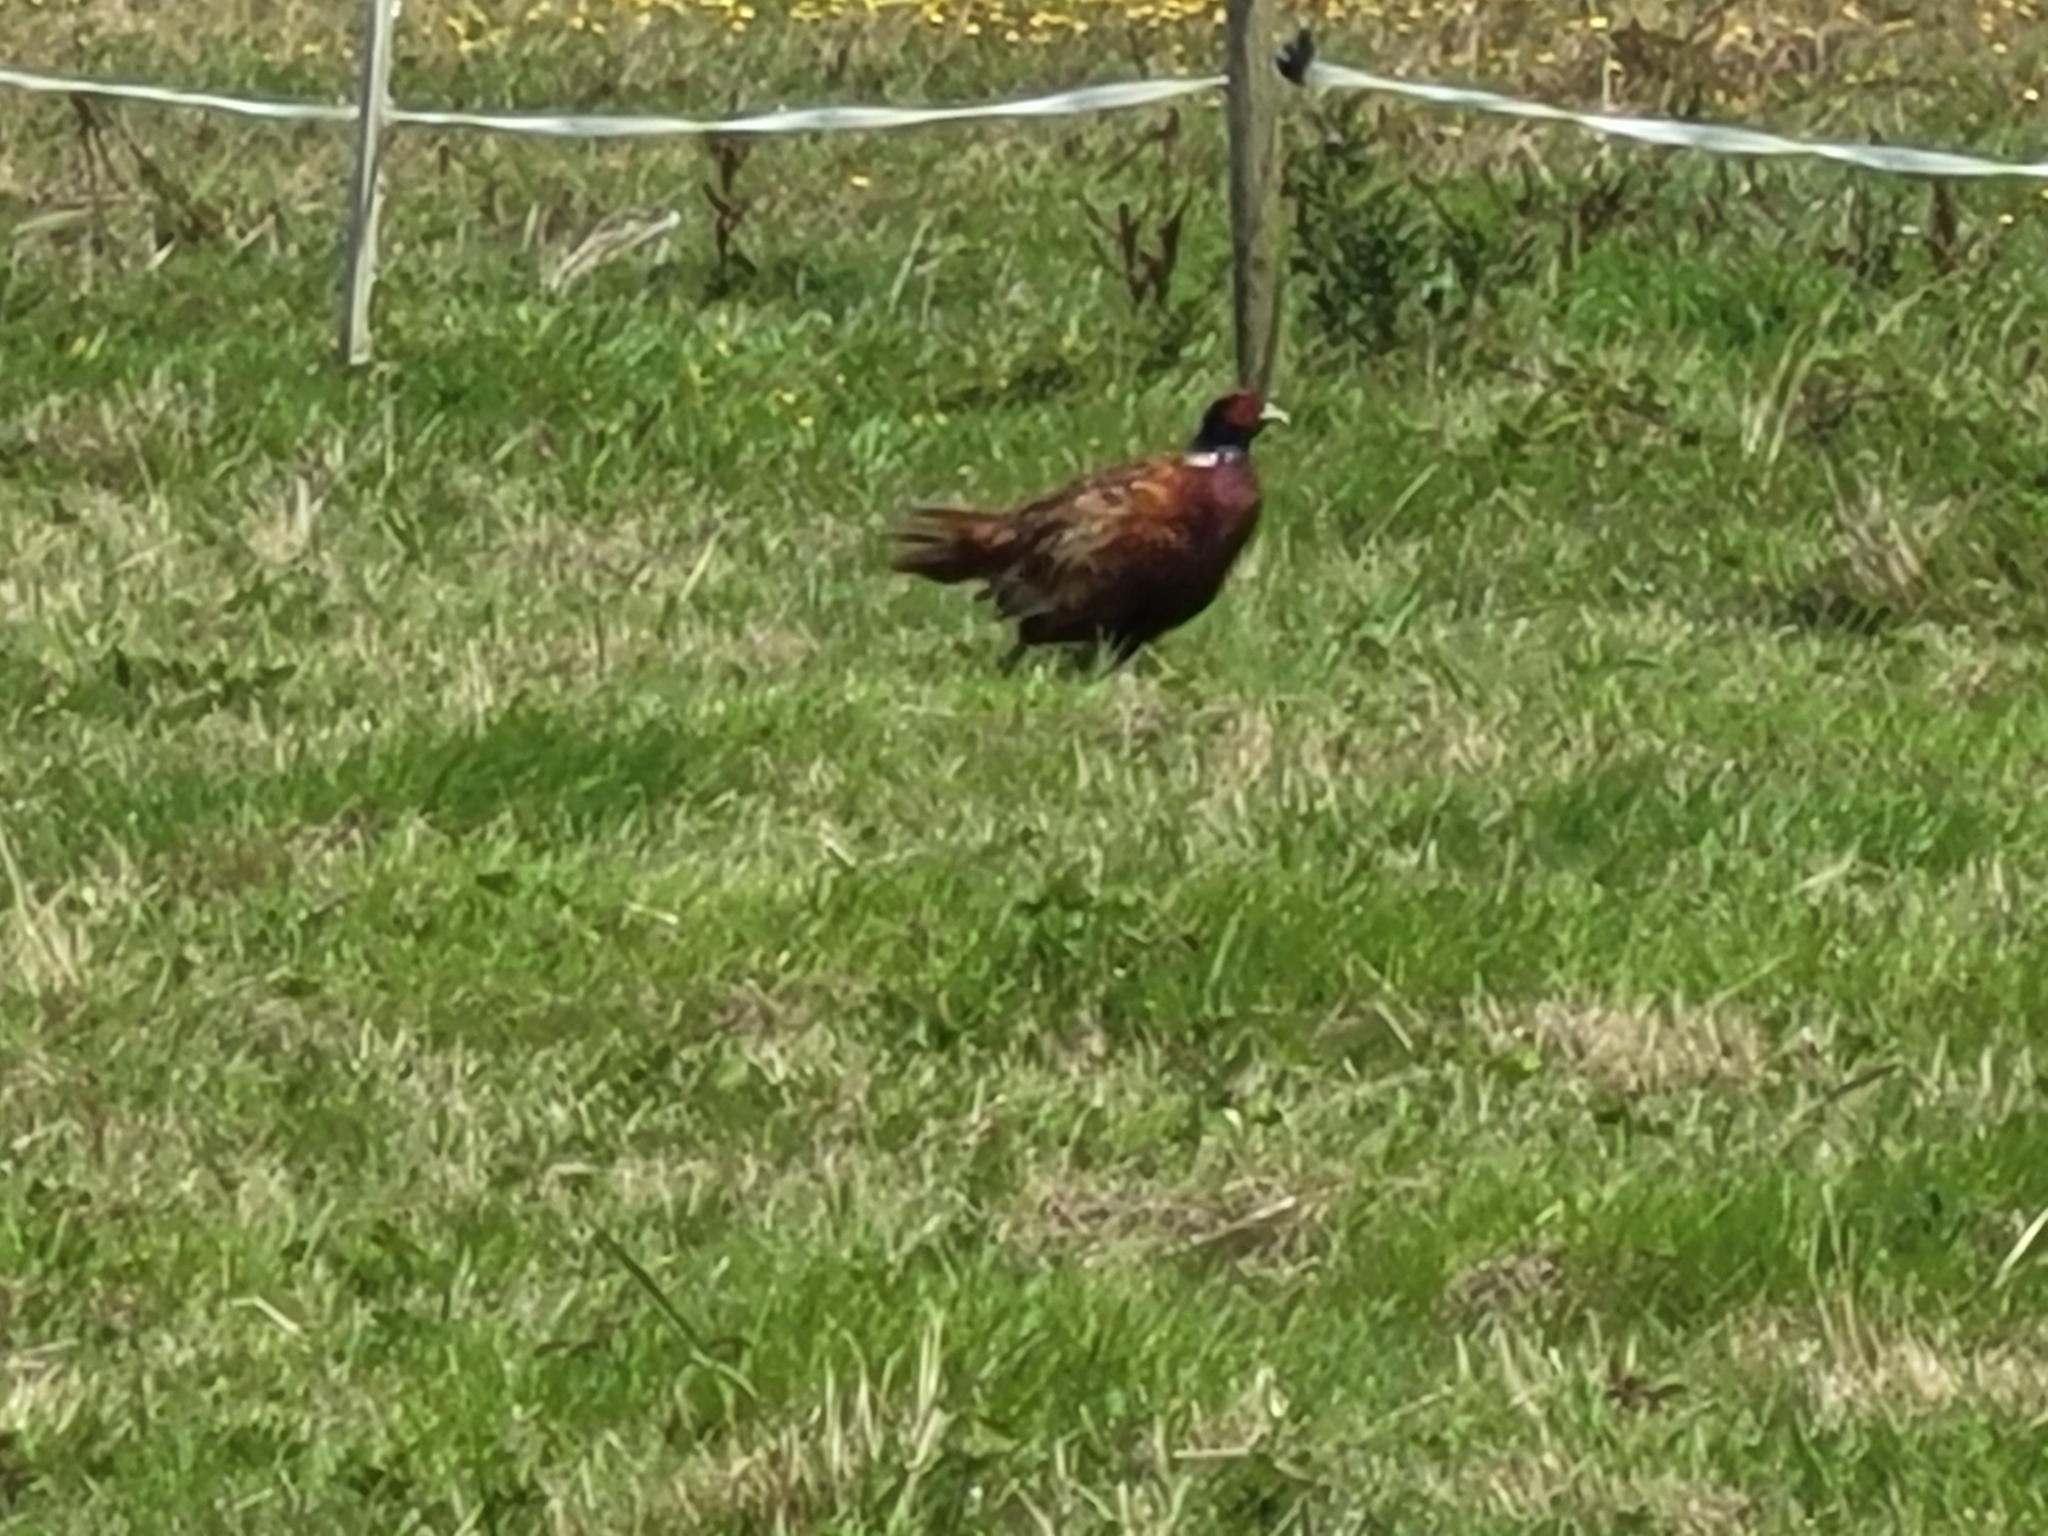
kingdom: Animalia
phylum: Chordata
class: Aves
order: Galliformes
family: Phasianidae
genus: Phasianus
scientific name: Phasianus colchicus
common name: Common pheasant
